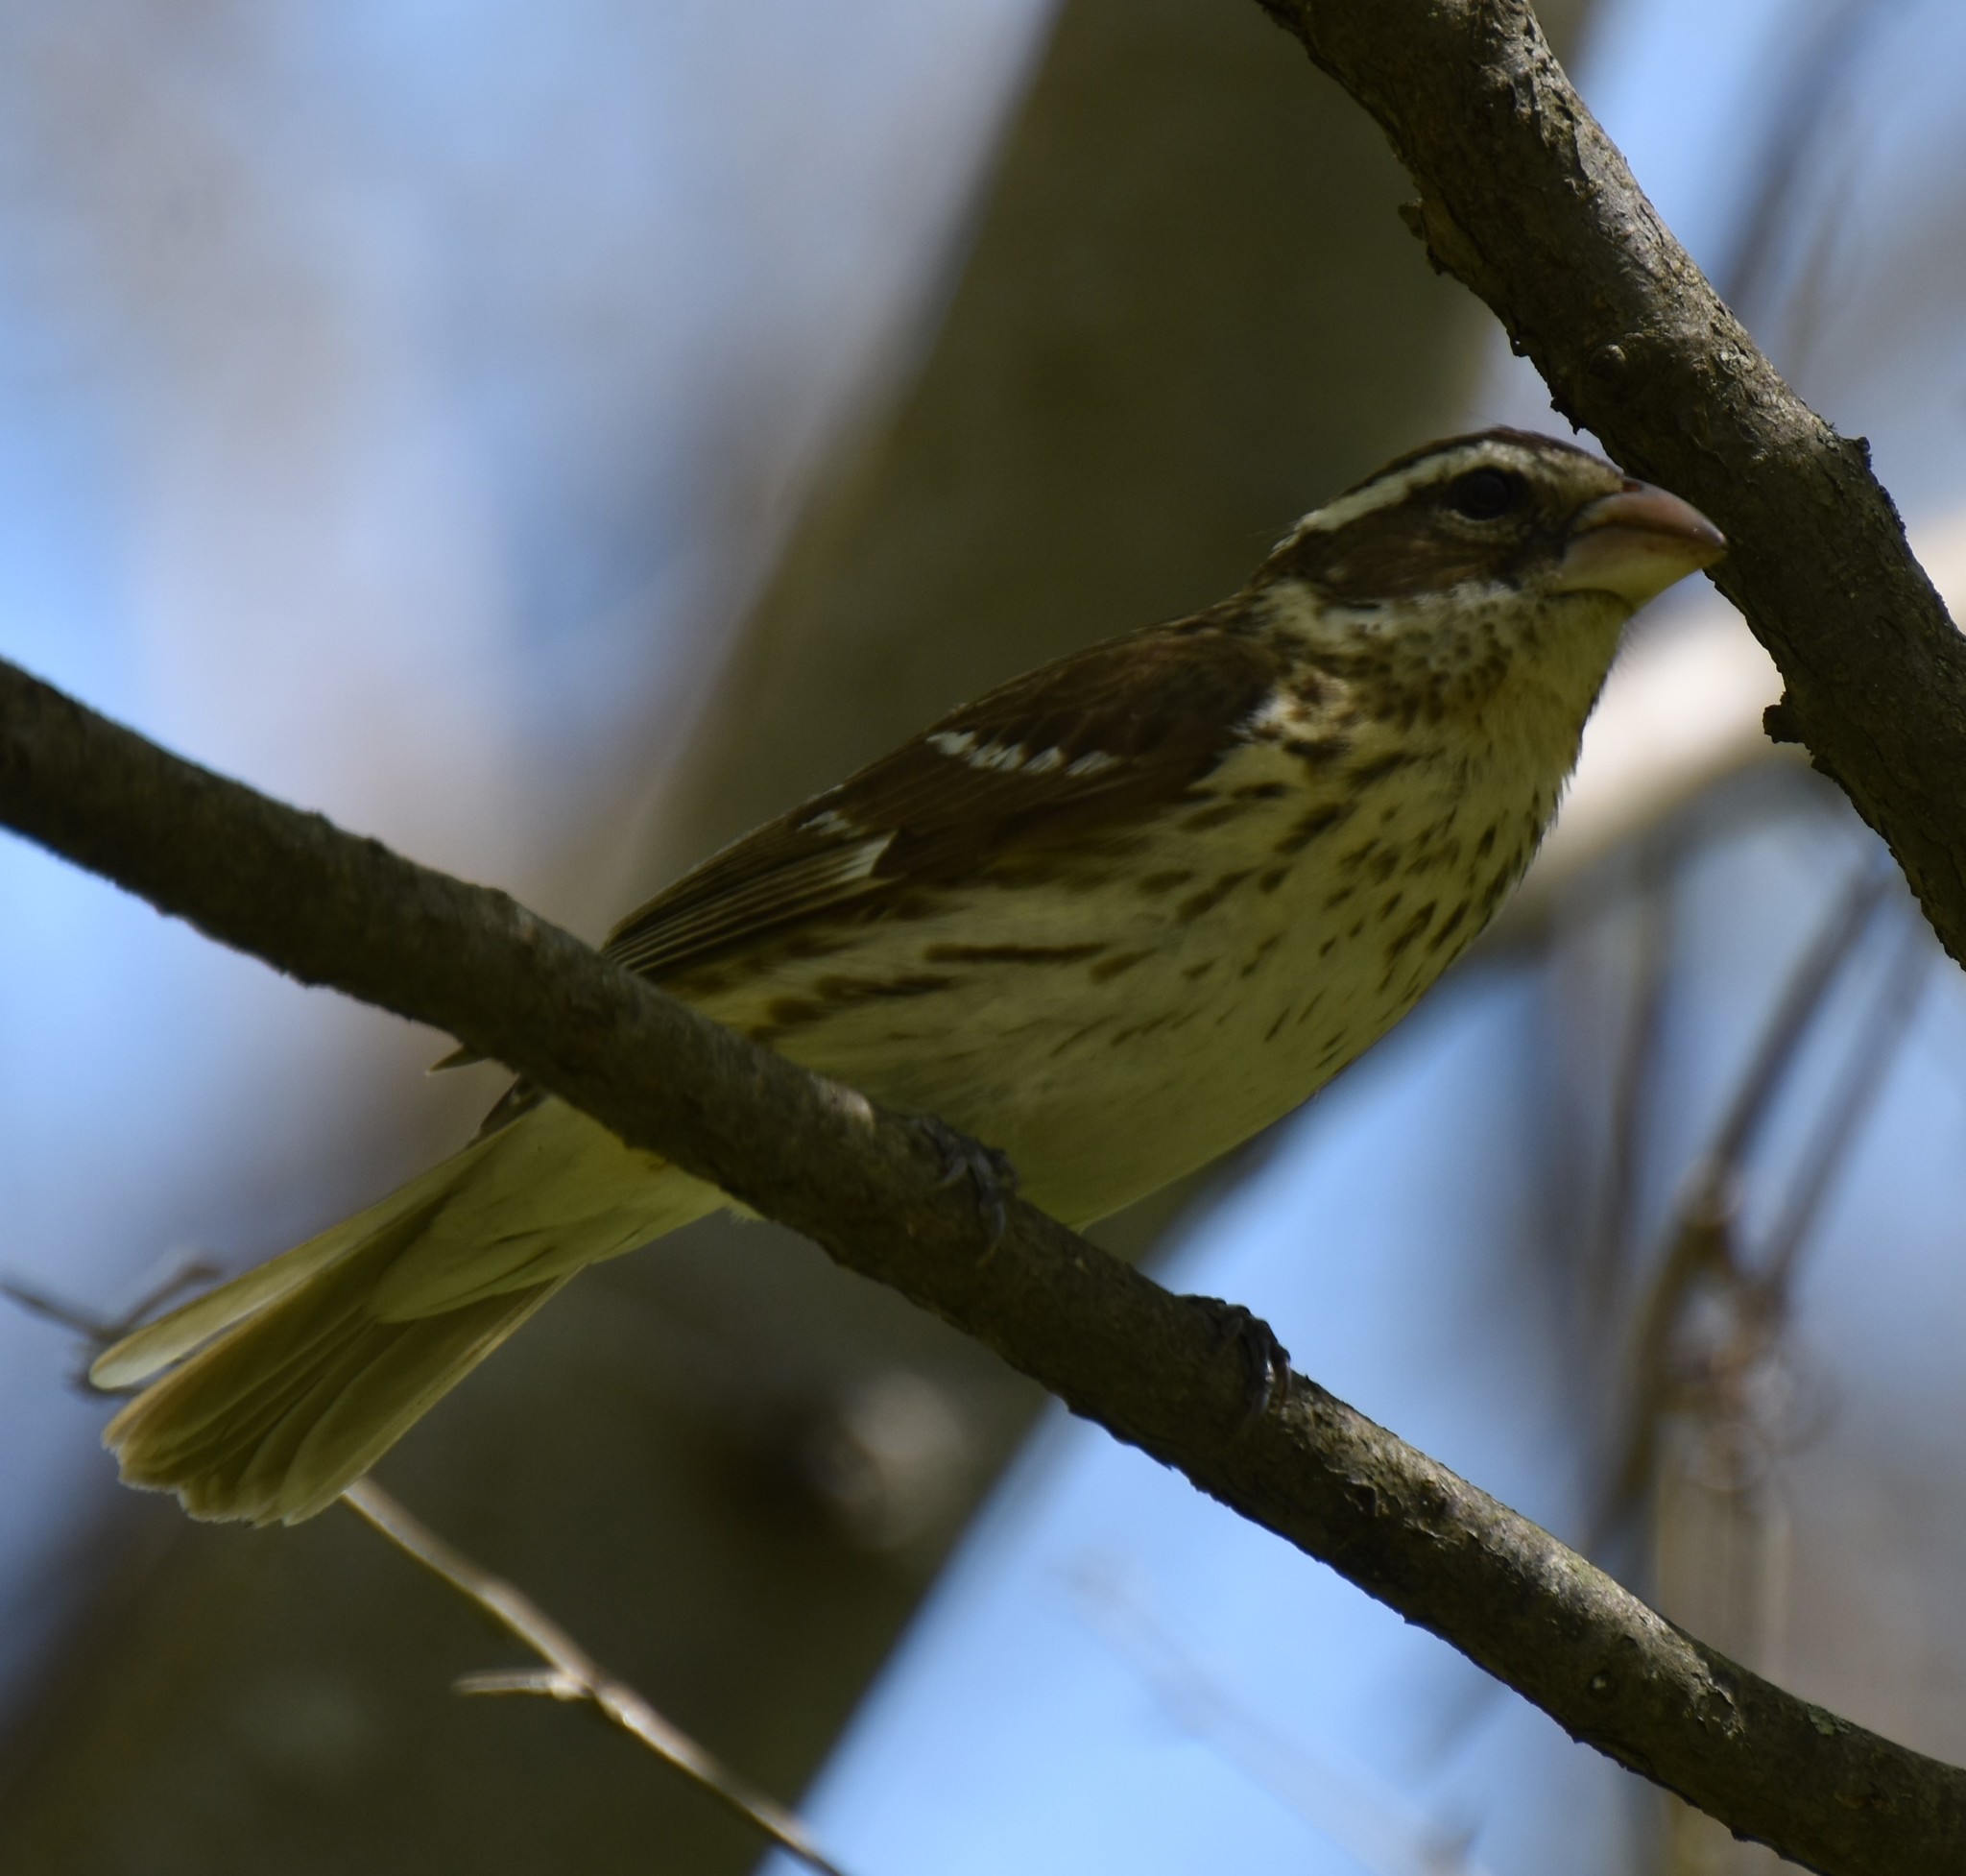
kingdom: Animalia
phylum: Chordata
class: Aves
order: Passeriformes
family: Cardinalidae
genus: Pheucticus
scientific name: Pheucticus ludovicianus
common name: Rose-breasted grosbeak
